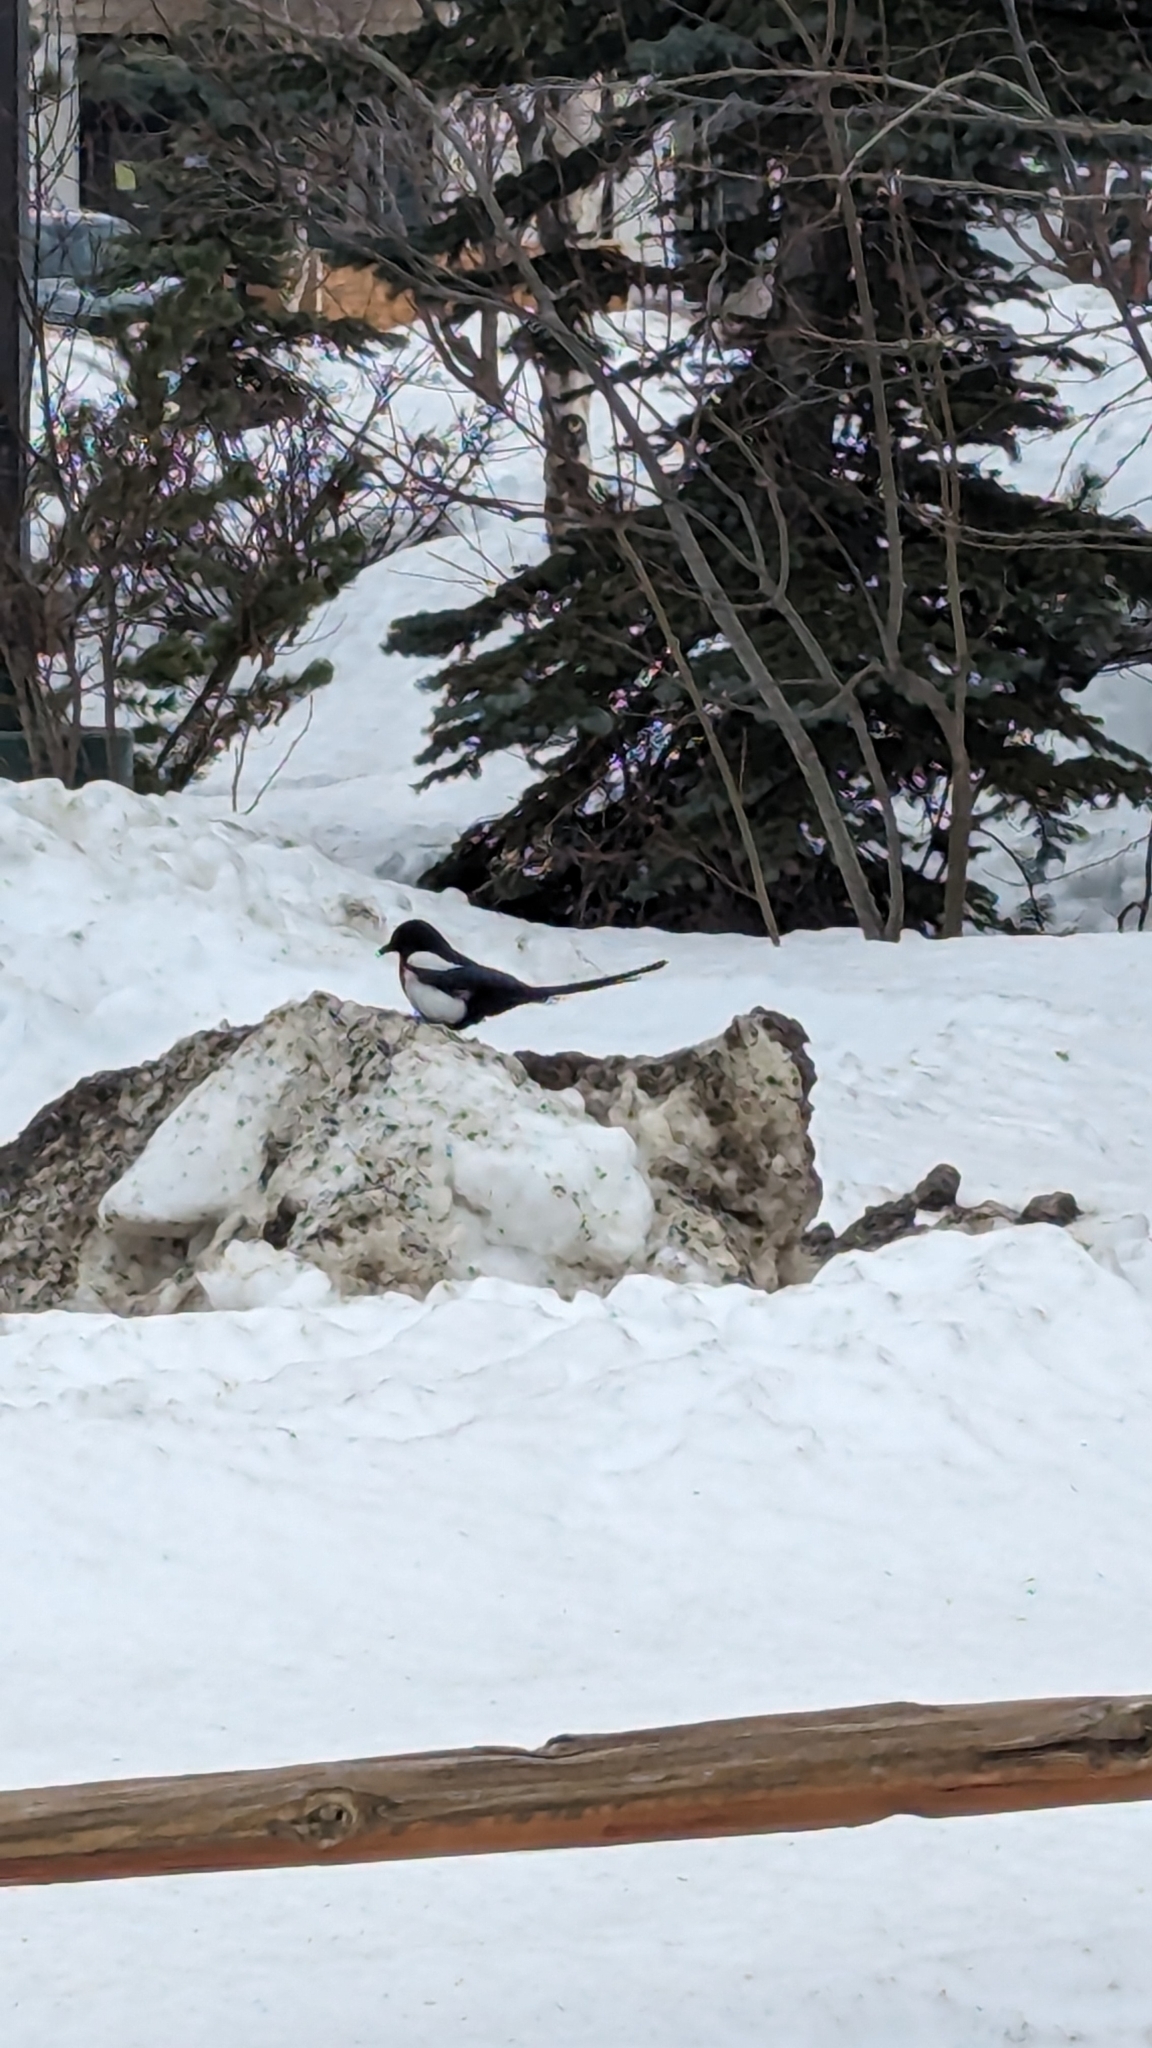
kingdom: Animalia
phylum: Chordata
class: Aves
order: Passeriformes
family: Corvidae
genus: Pica
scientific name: Pica hudsonia
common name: Black-billed magpie
